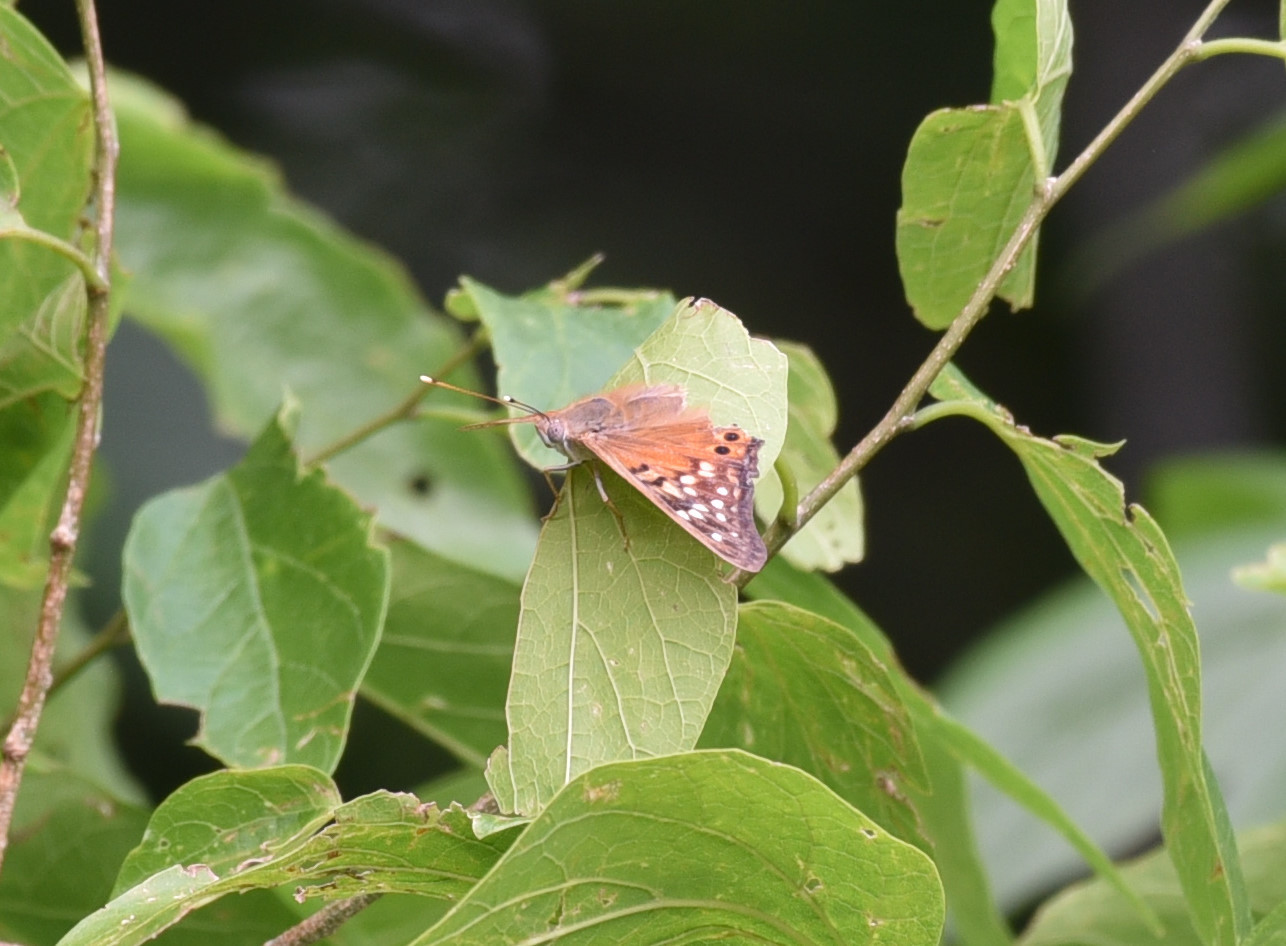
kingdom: Animalia
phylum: Arthropoda
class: Insecta
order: Lepidoptera
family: Nymphalidae
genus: Asterocampa
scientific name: Asterocampa clyton
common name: Tawny emperor
